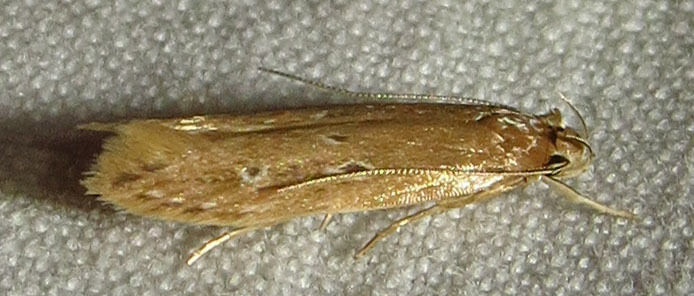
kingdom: Animalia
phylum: Arthropoda
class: Insecta
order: Lepidoptera
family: Cosmopterigidae
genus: Limnaecia
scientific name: Limnaecia phragmitella
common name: Bulrush cosmet
